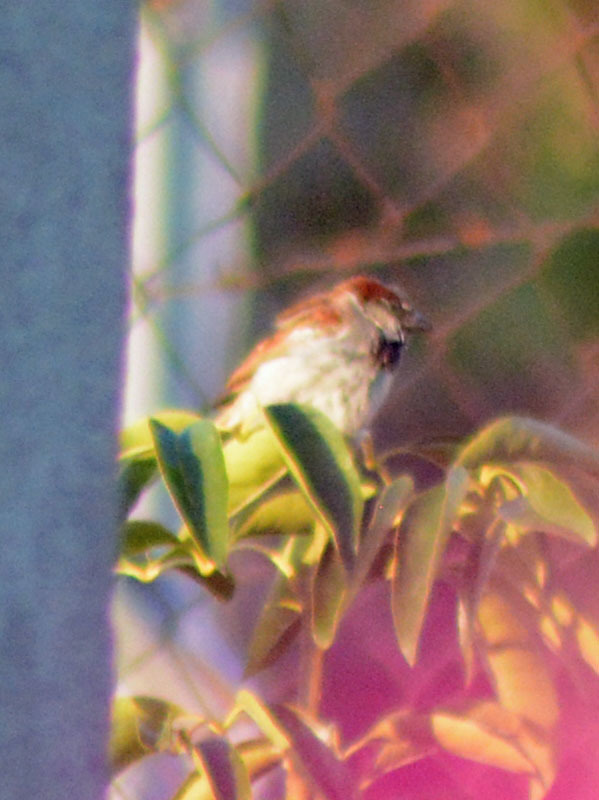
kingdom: Animalia
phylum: Chordata
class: Aves
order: Passeriformes
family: Passeridae
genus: Passer
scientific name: Passer domesticus
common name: House sparrow
